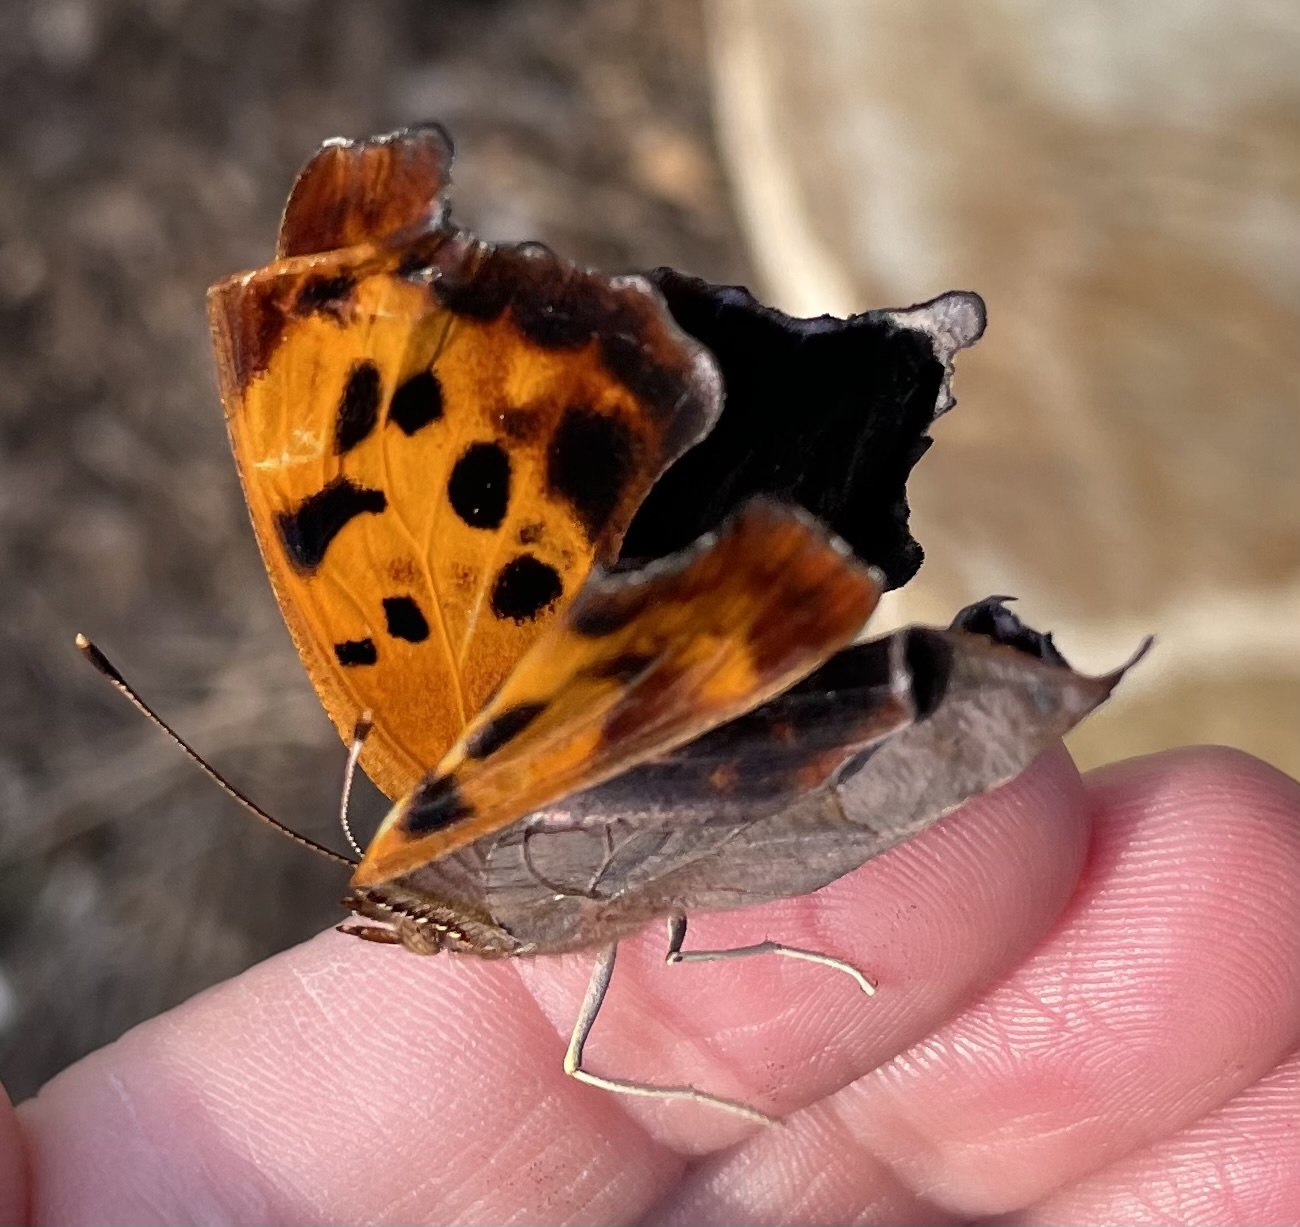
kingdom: Animalia
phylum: Arthropoda
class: Insecta
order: Lepidoptera
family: Nymphalidae
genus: Polygonia
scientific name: Polygonia interrogationis
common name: Question mark
